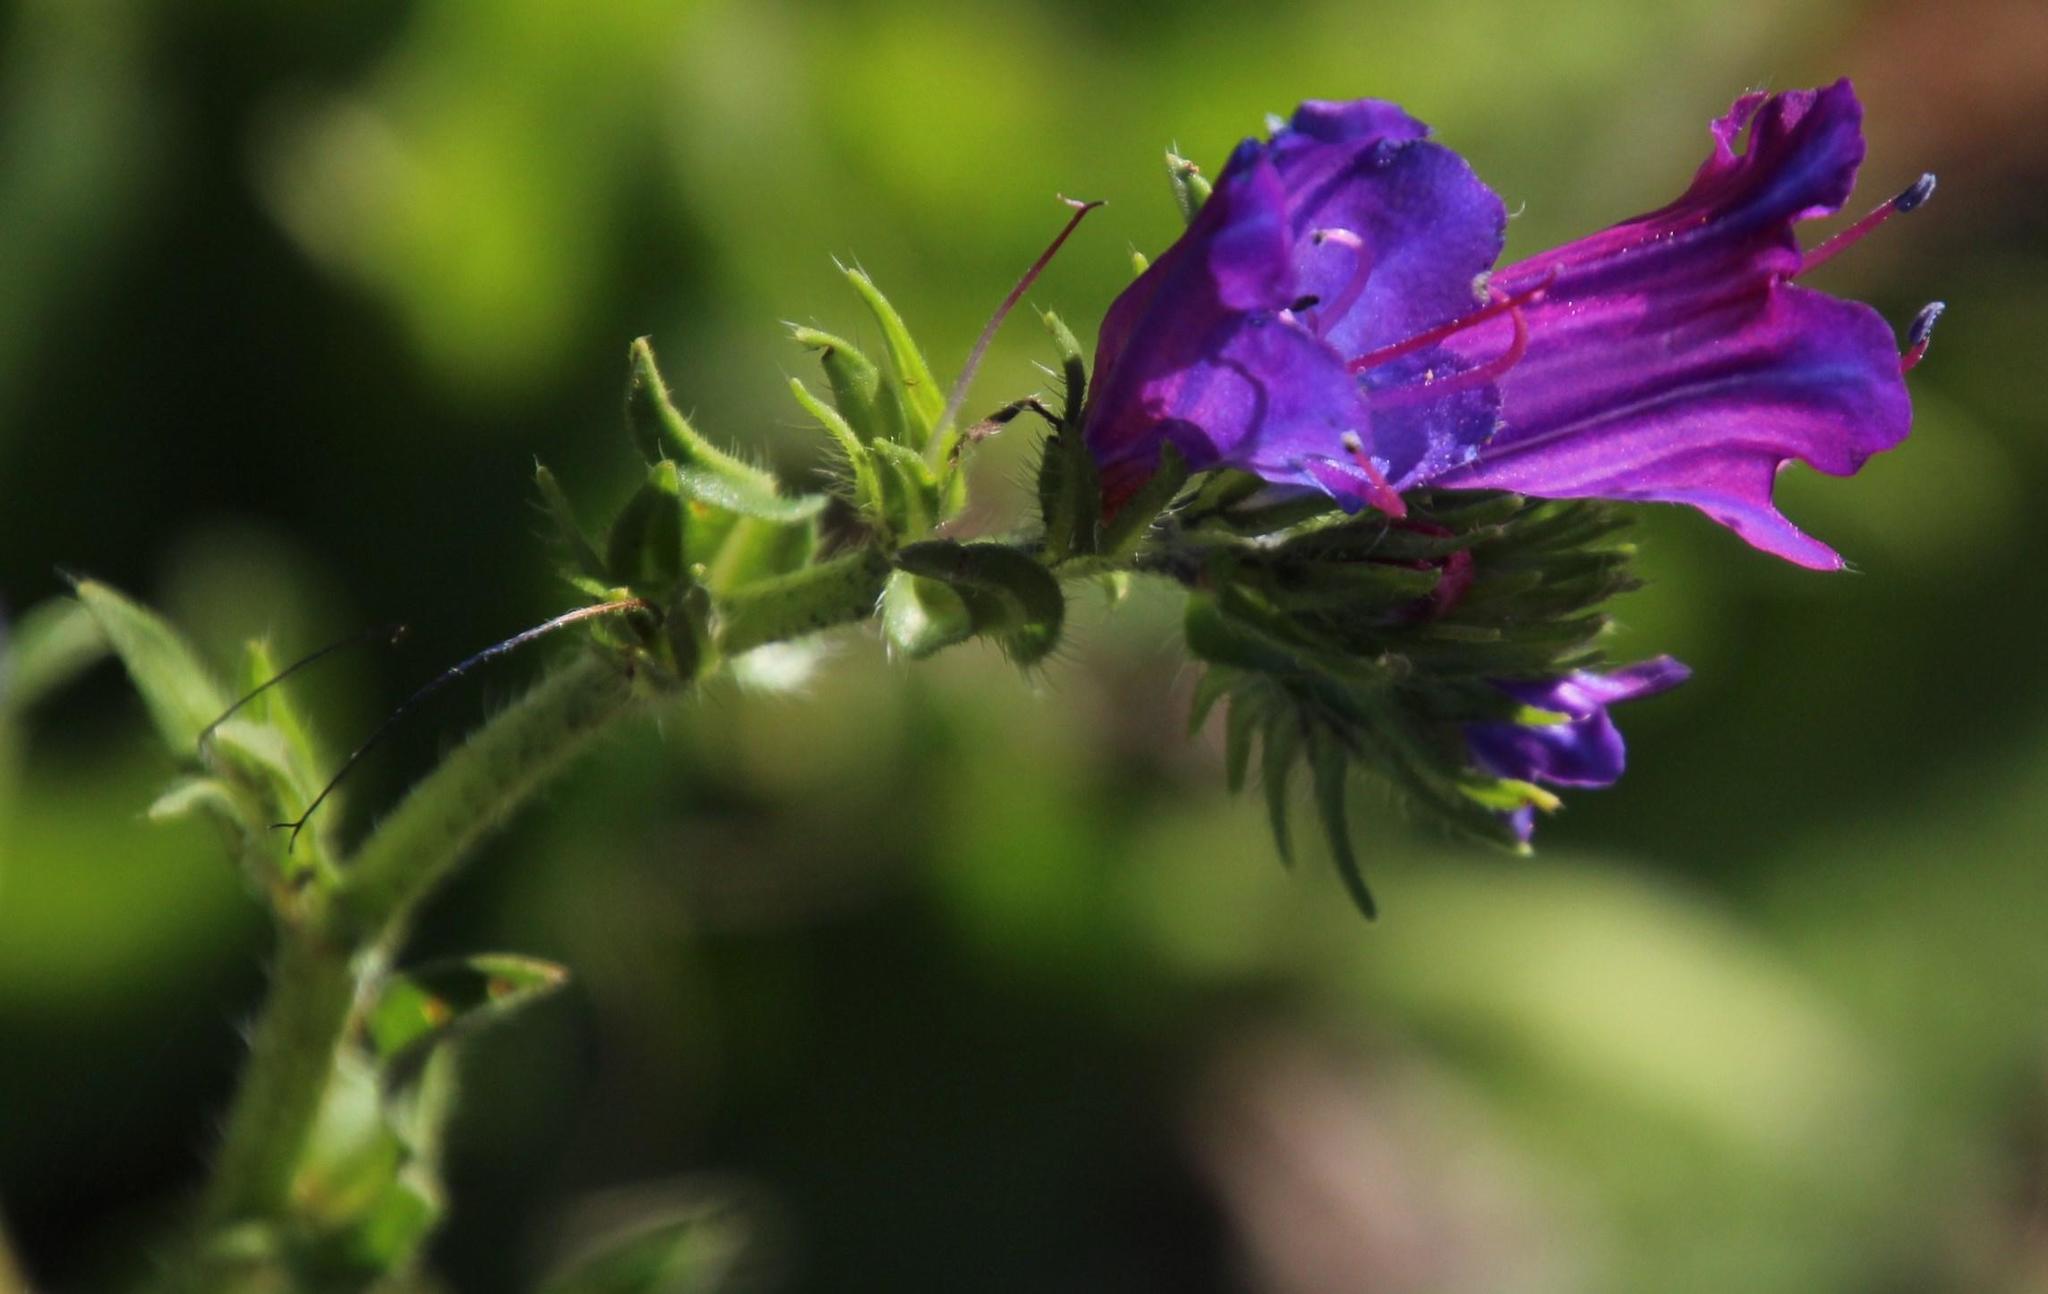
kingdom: Plantae
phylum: Tracheophyta
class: Magnoliopsida
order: Boraginales
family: Boraginaceae
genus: Echium
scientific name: Echium plantagineum
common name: Purple viper's-bugloss
